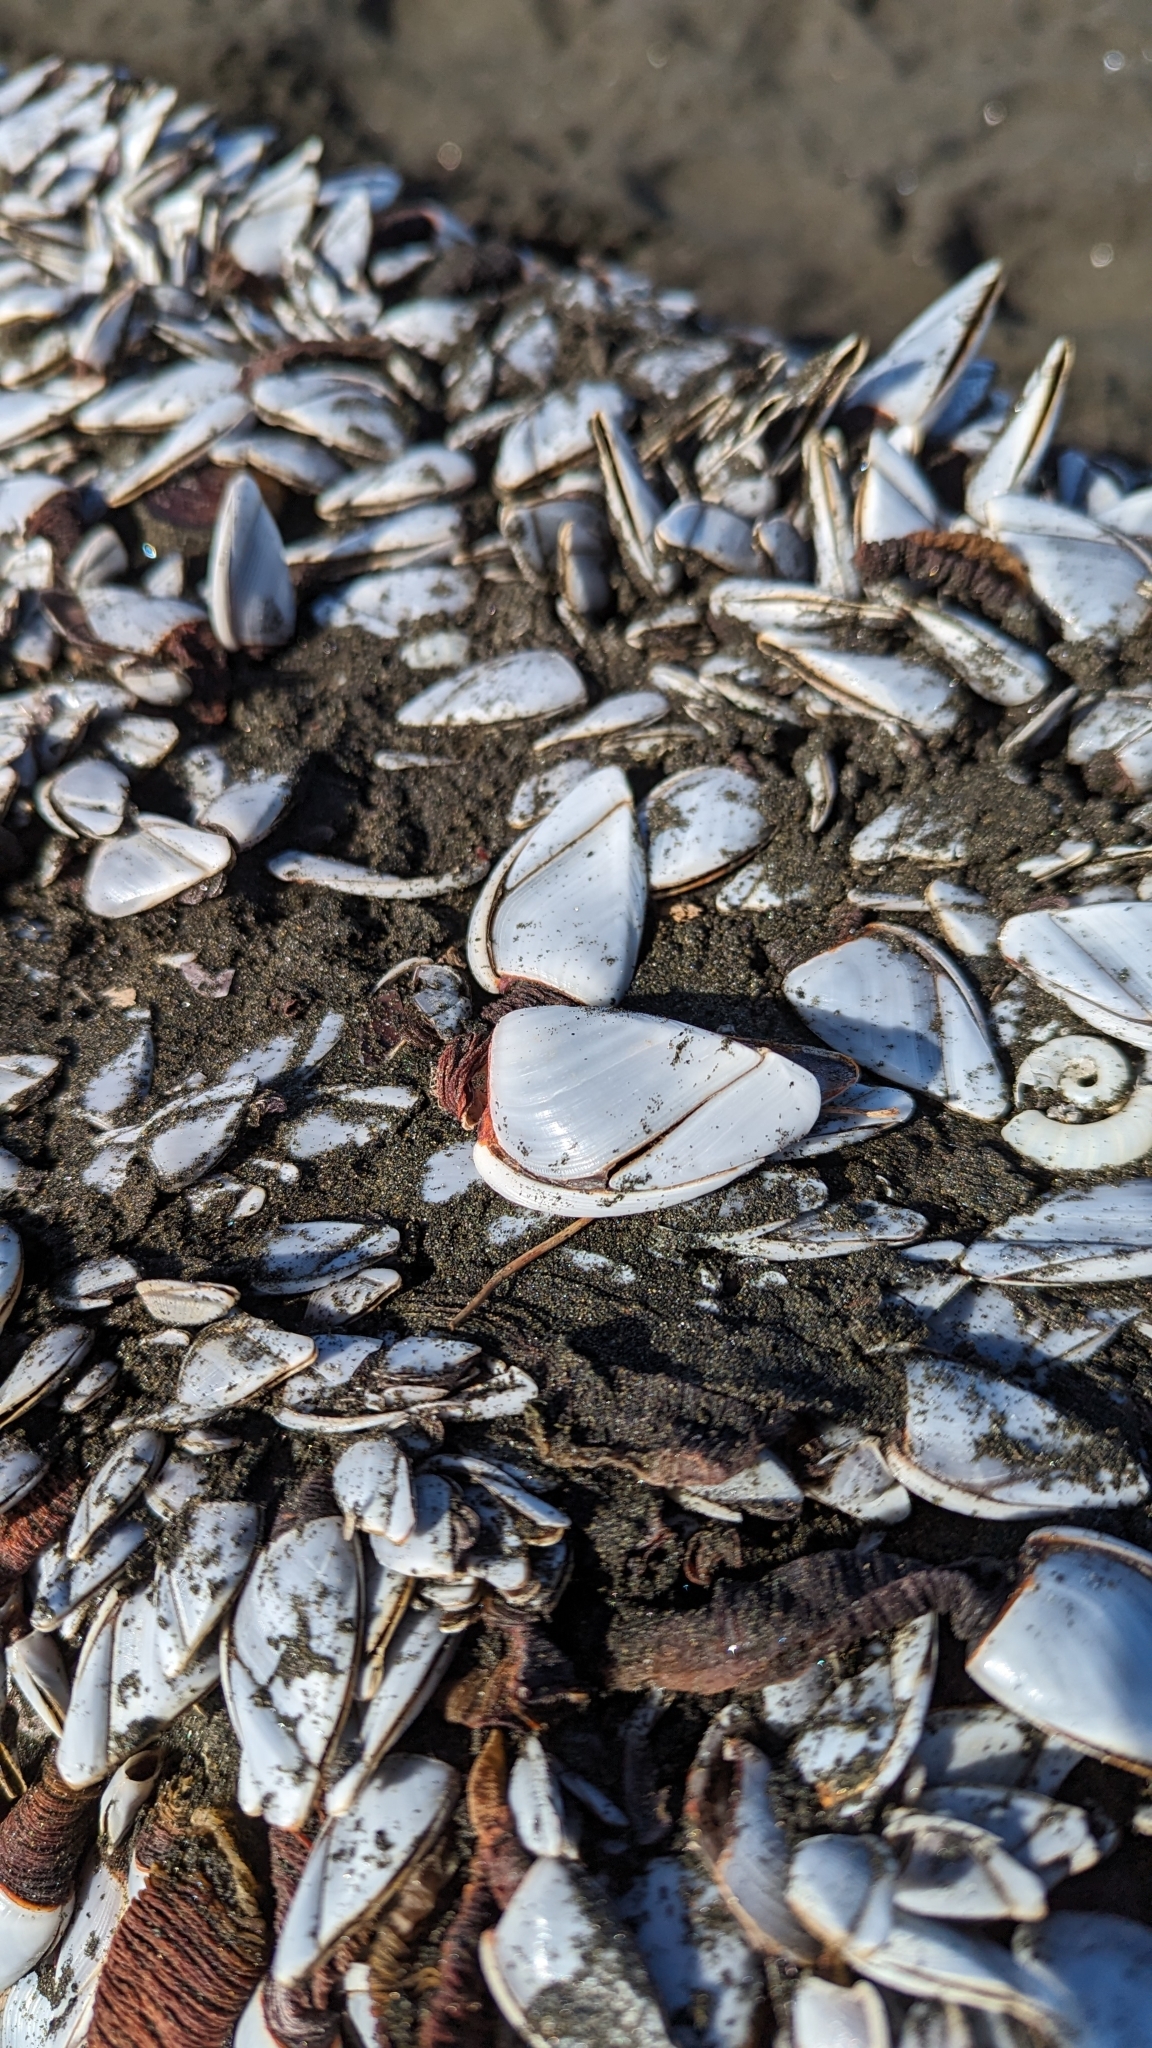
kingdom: Animalia
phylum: Arthropoda
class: Maxillopoda
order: Pedunculata
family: Lepadidae
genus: Lepas
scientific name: Lepas anatifera
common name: Common goose barnacle
